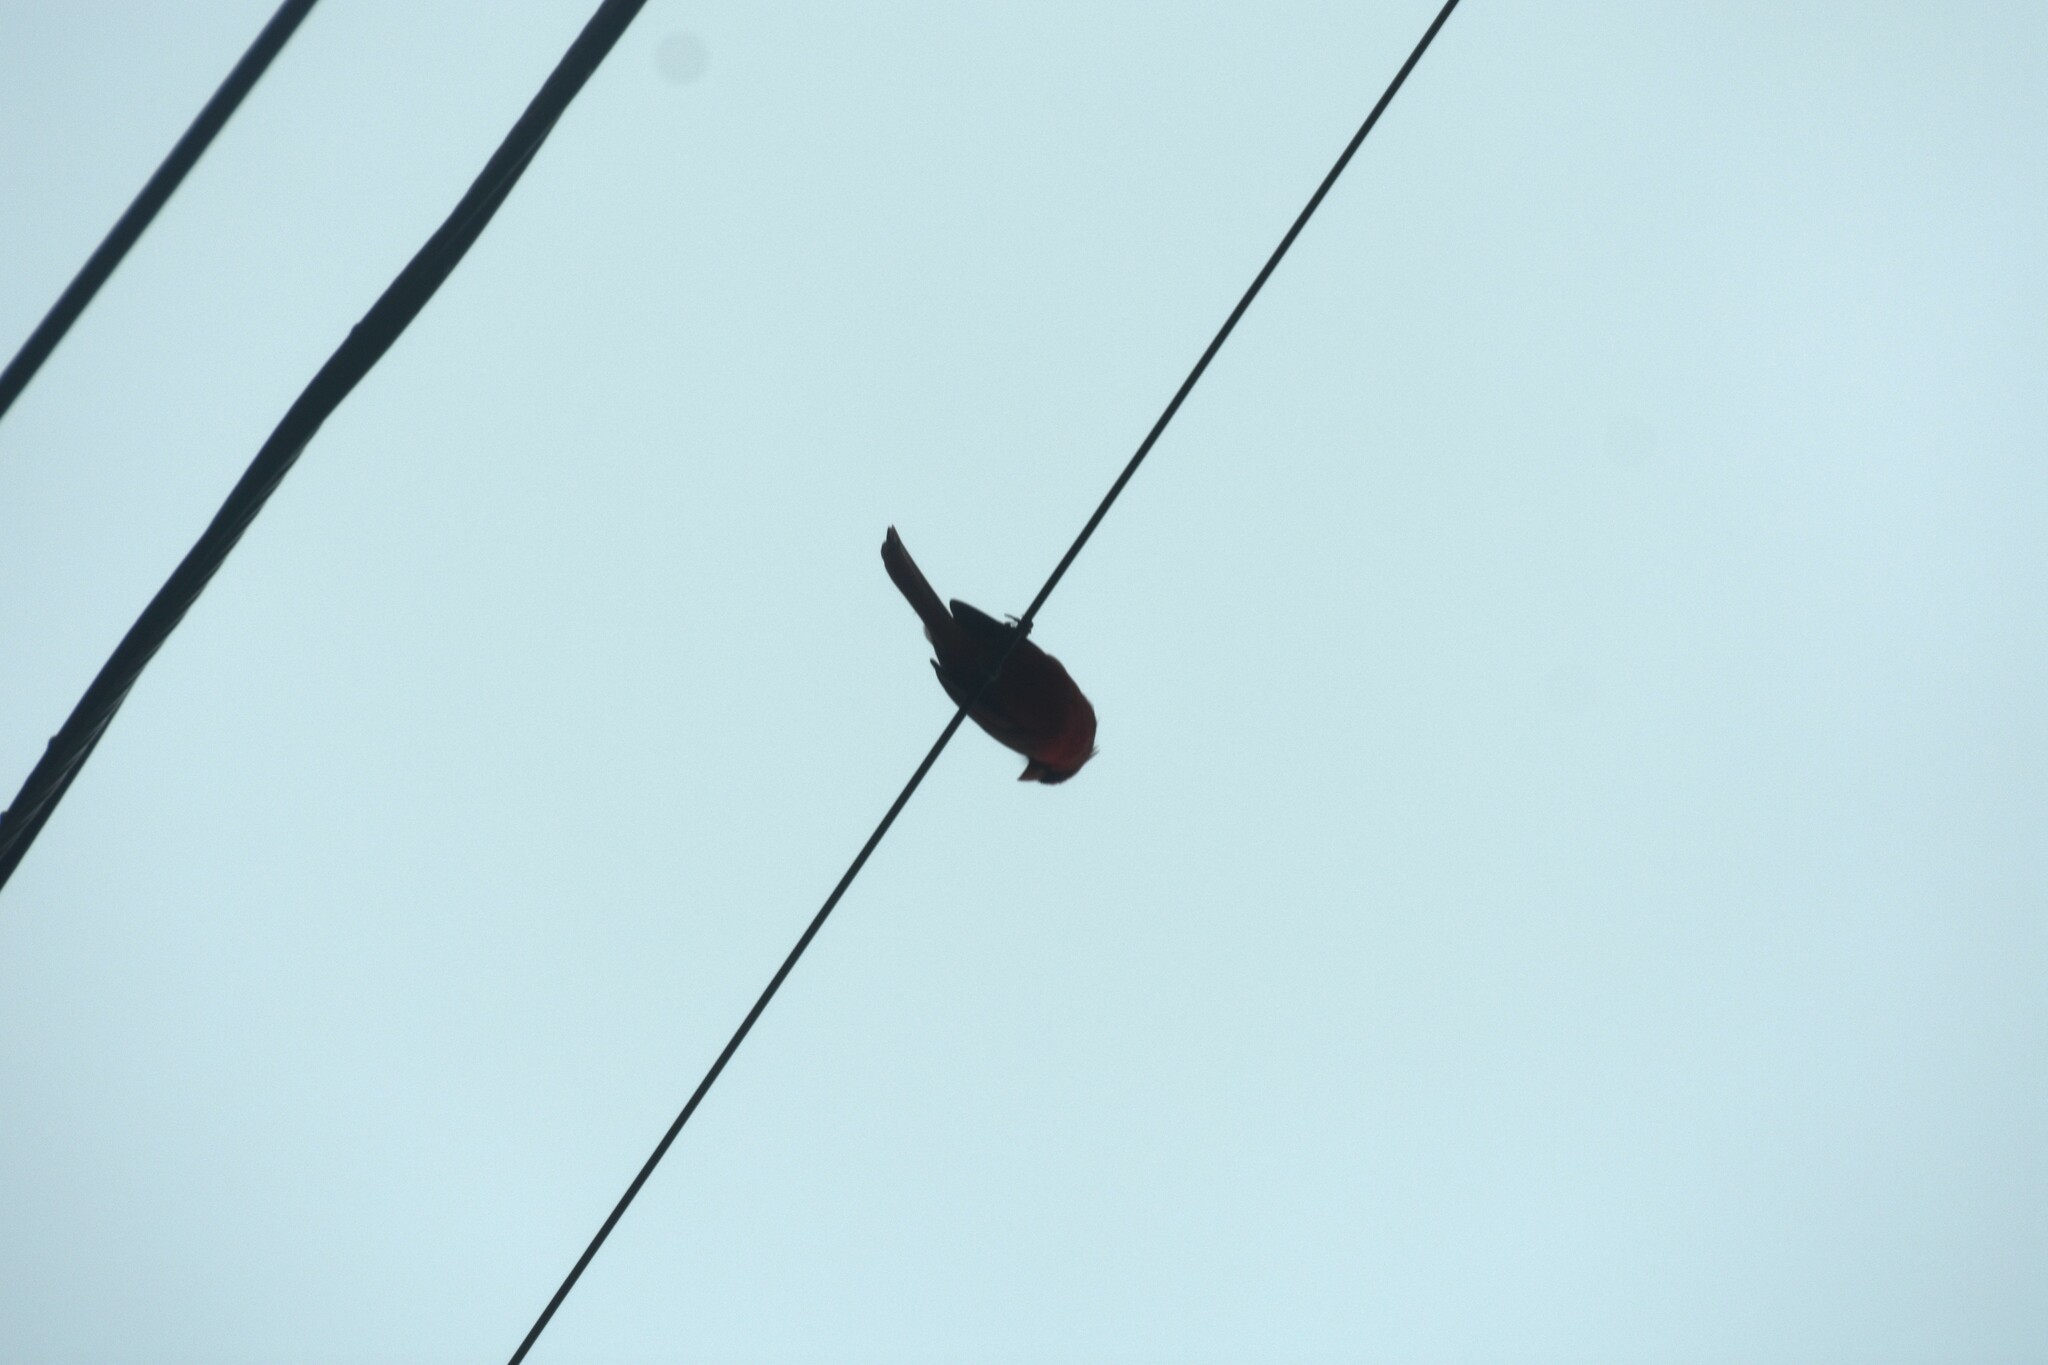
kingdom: Animalia
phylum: Chordata
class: Aves
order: Passeriformes
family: Cardinalidae
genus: Cardinalis
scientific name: Cardinalis cardinalis
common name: Northern cardinal
